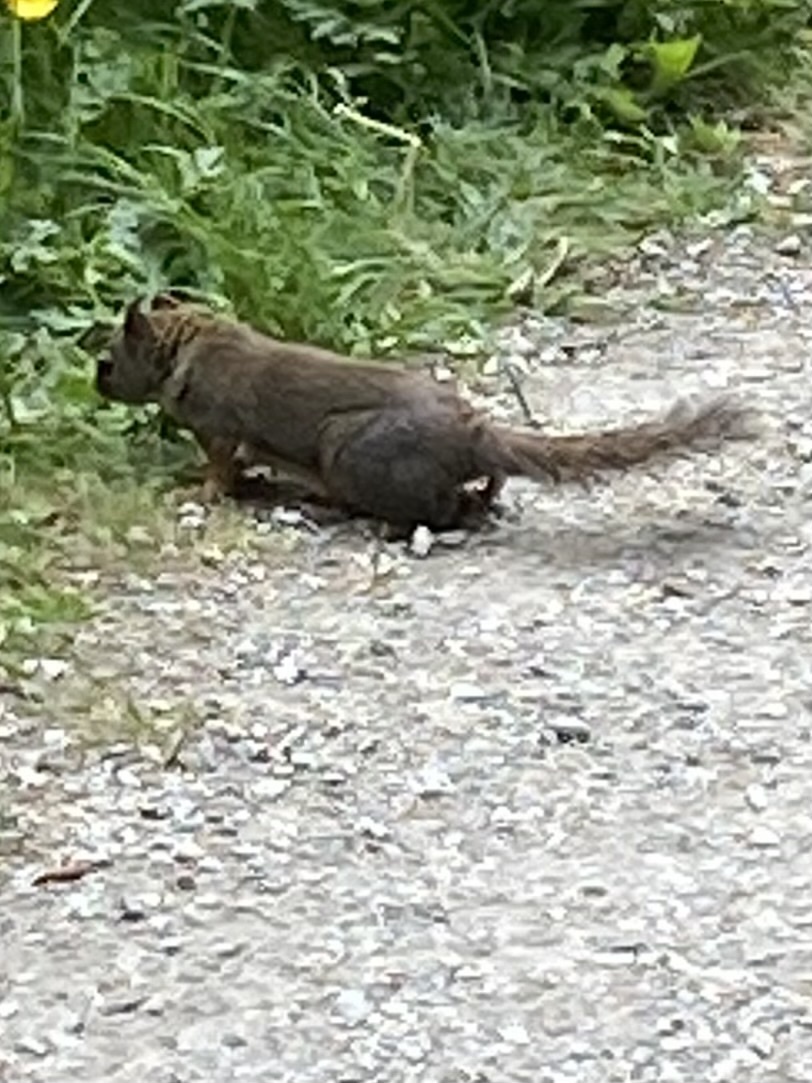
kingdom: Animalia
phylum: Chordata
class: Mammalia
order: Rodentia
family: Sciuridae
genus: Tamiasciurus
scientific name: Tamiasciurus douglasii
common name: Douglas's squirrel
